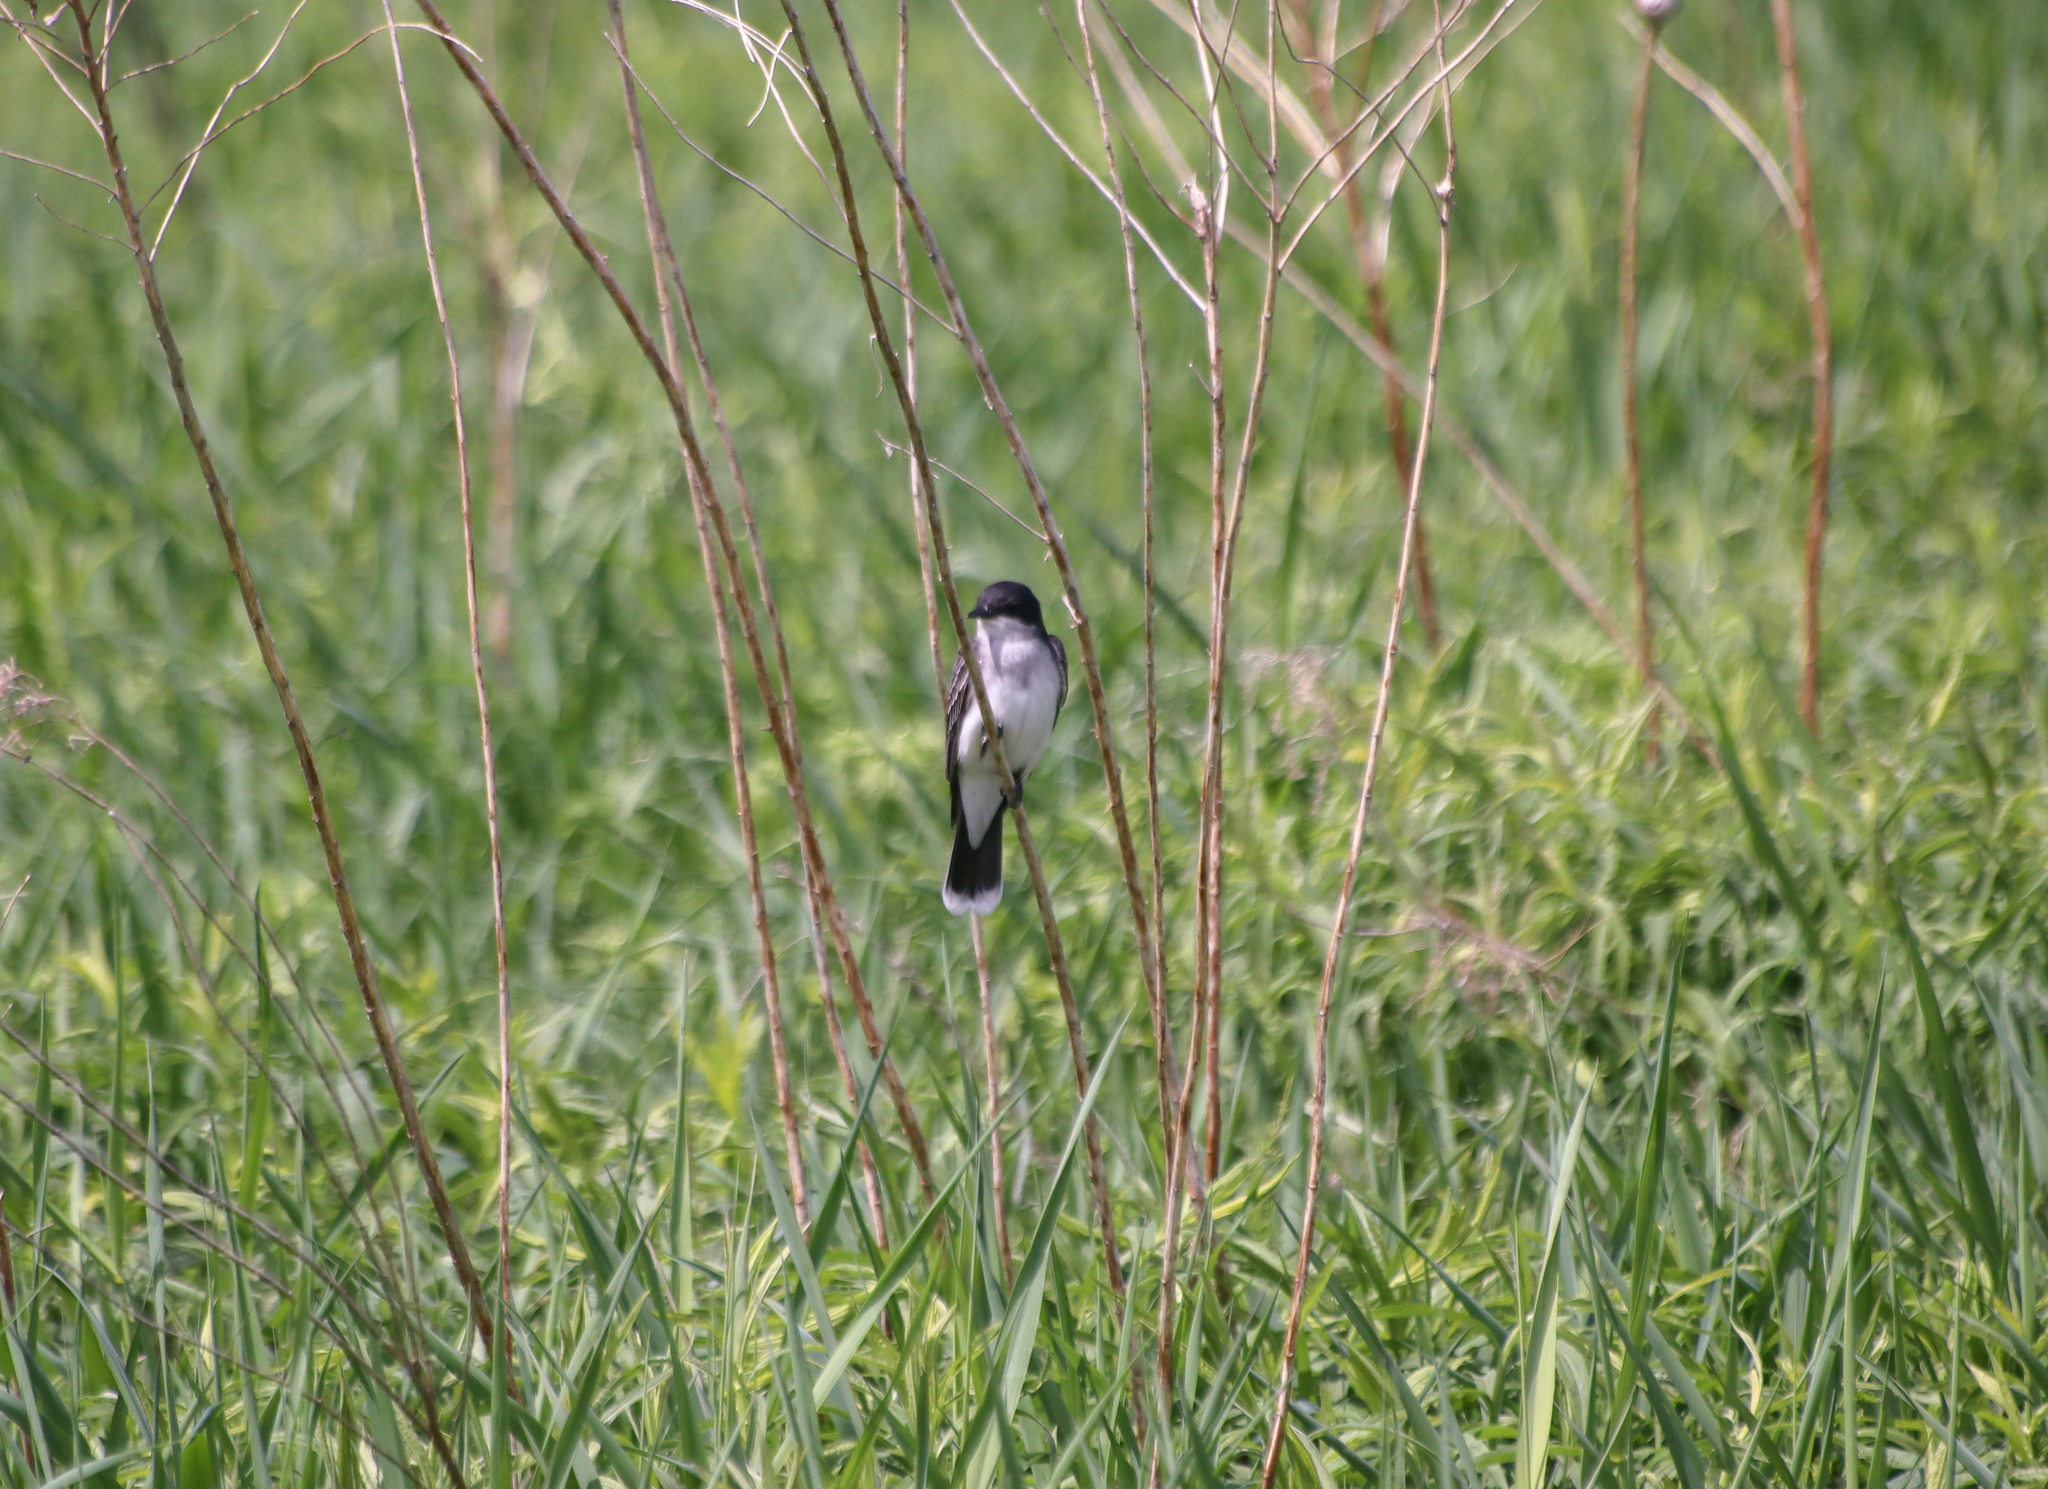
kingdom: Animalia
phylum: Chordata
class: Aves
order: Passeriformes
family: Tyrannidae
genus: Tyrannus
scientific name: Tyrannus tyrannus
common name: Eastern kingbird
